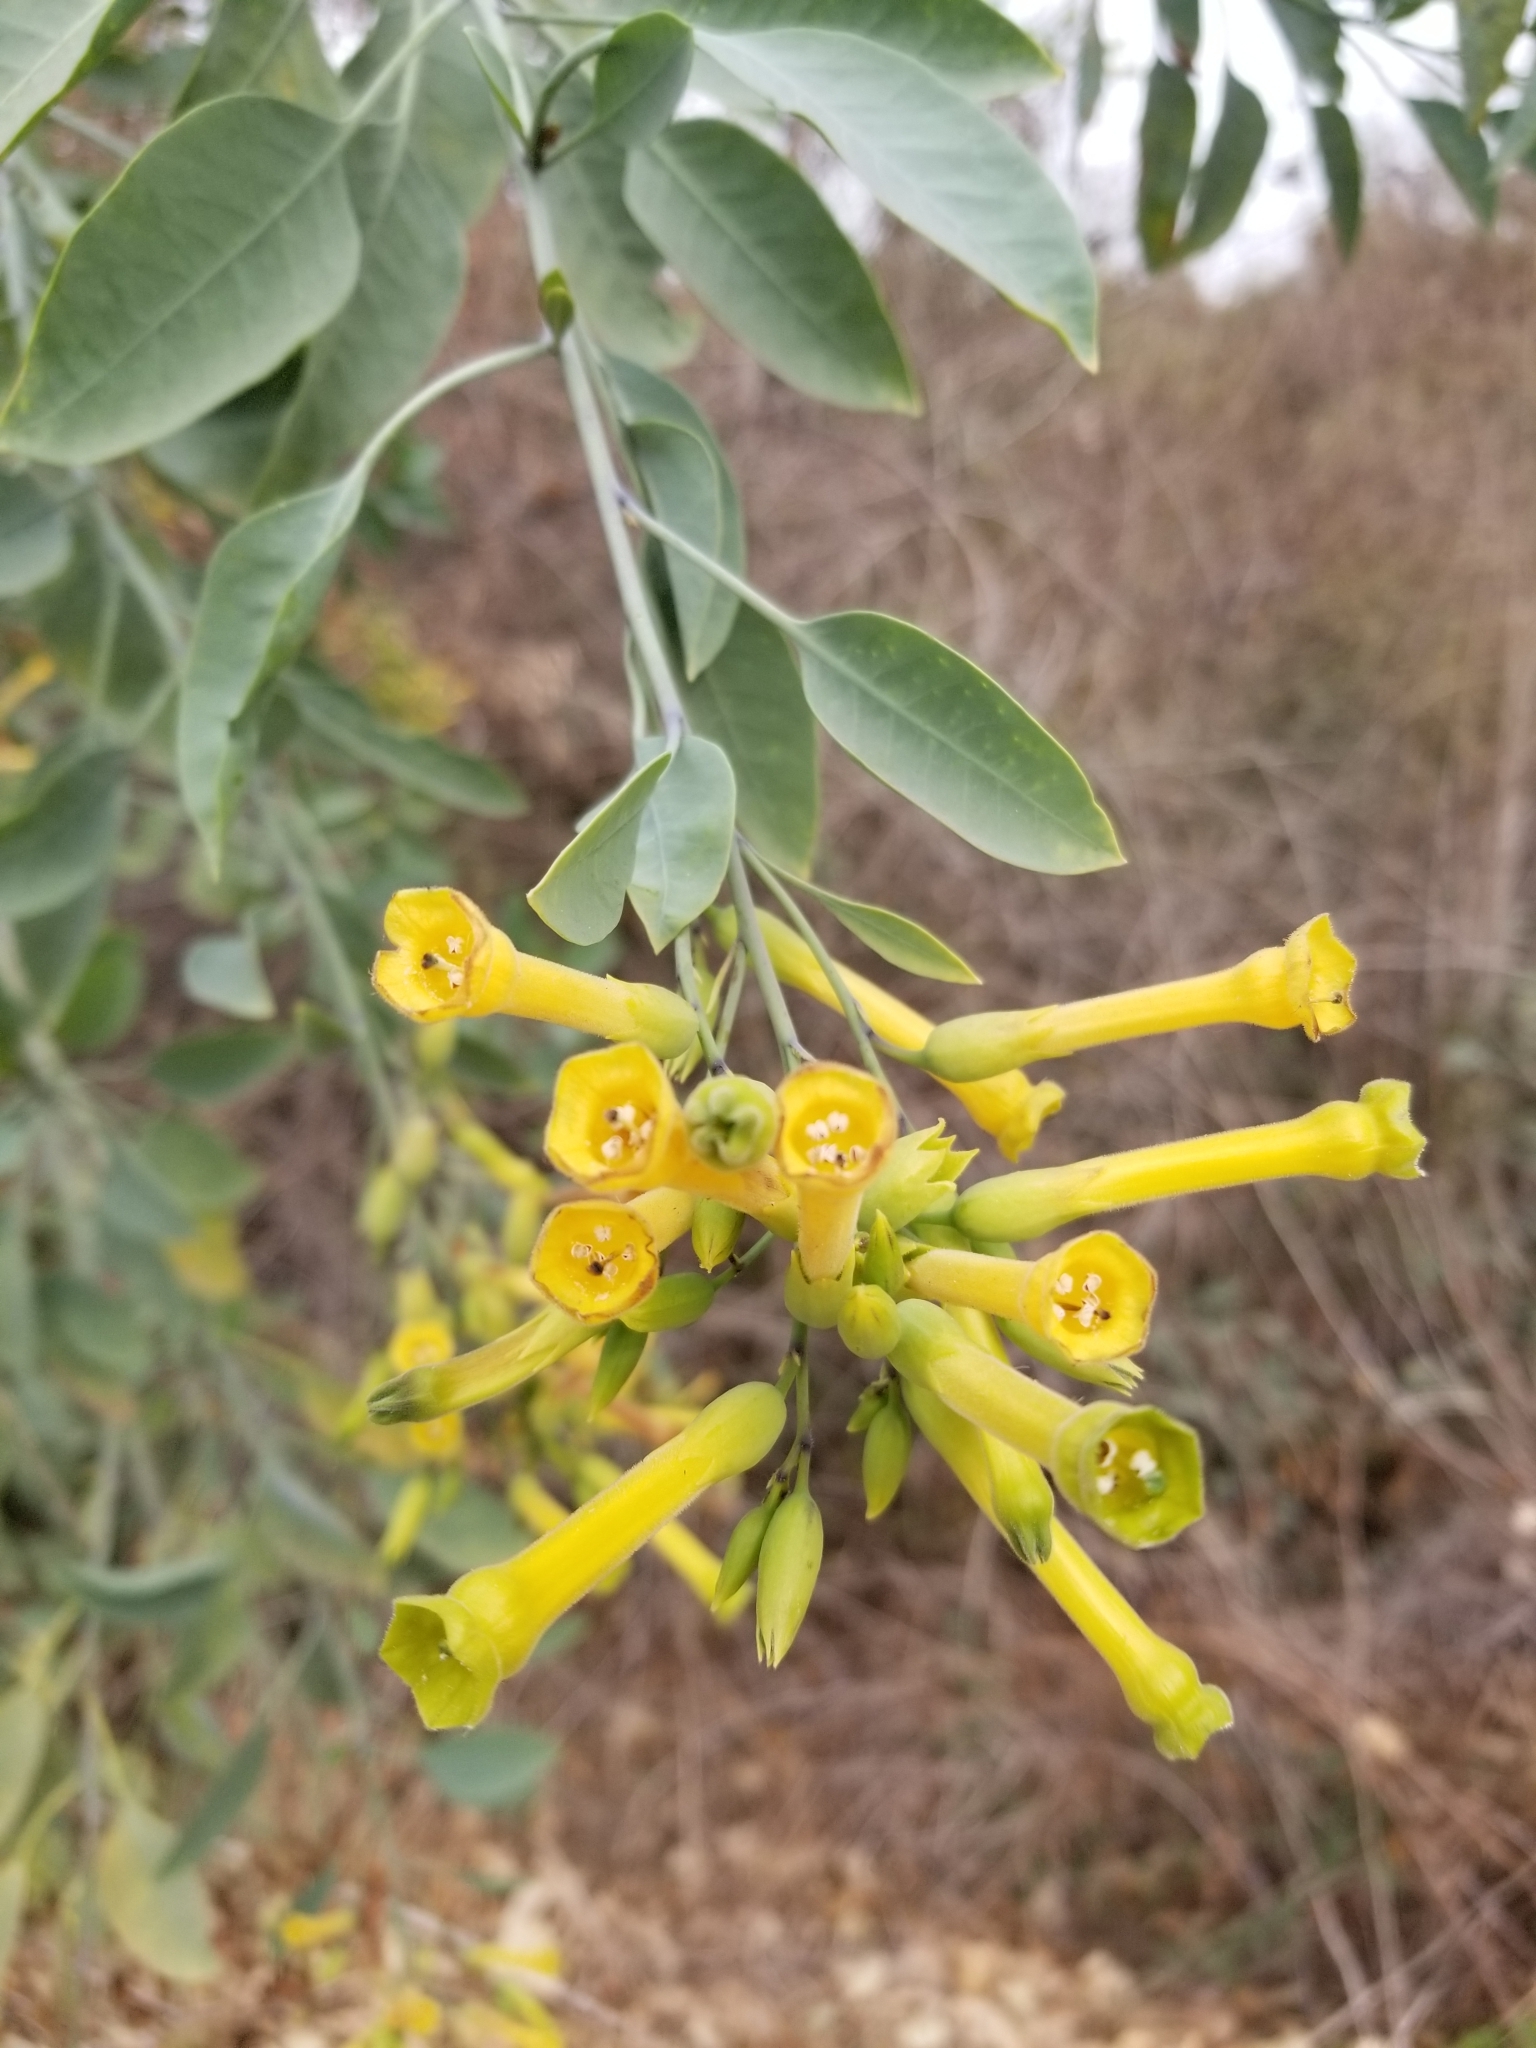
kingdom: Plantae
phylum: Tracheophyta
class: Magnoliopsida
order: Solanales
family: Solanaceae
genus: Nicotiana
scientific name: Nicotiana glauca
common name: Tree tobacco
